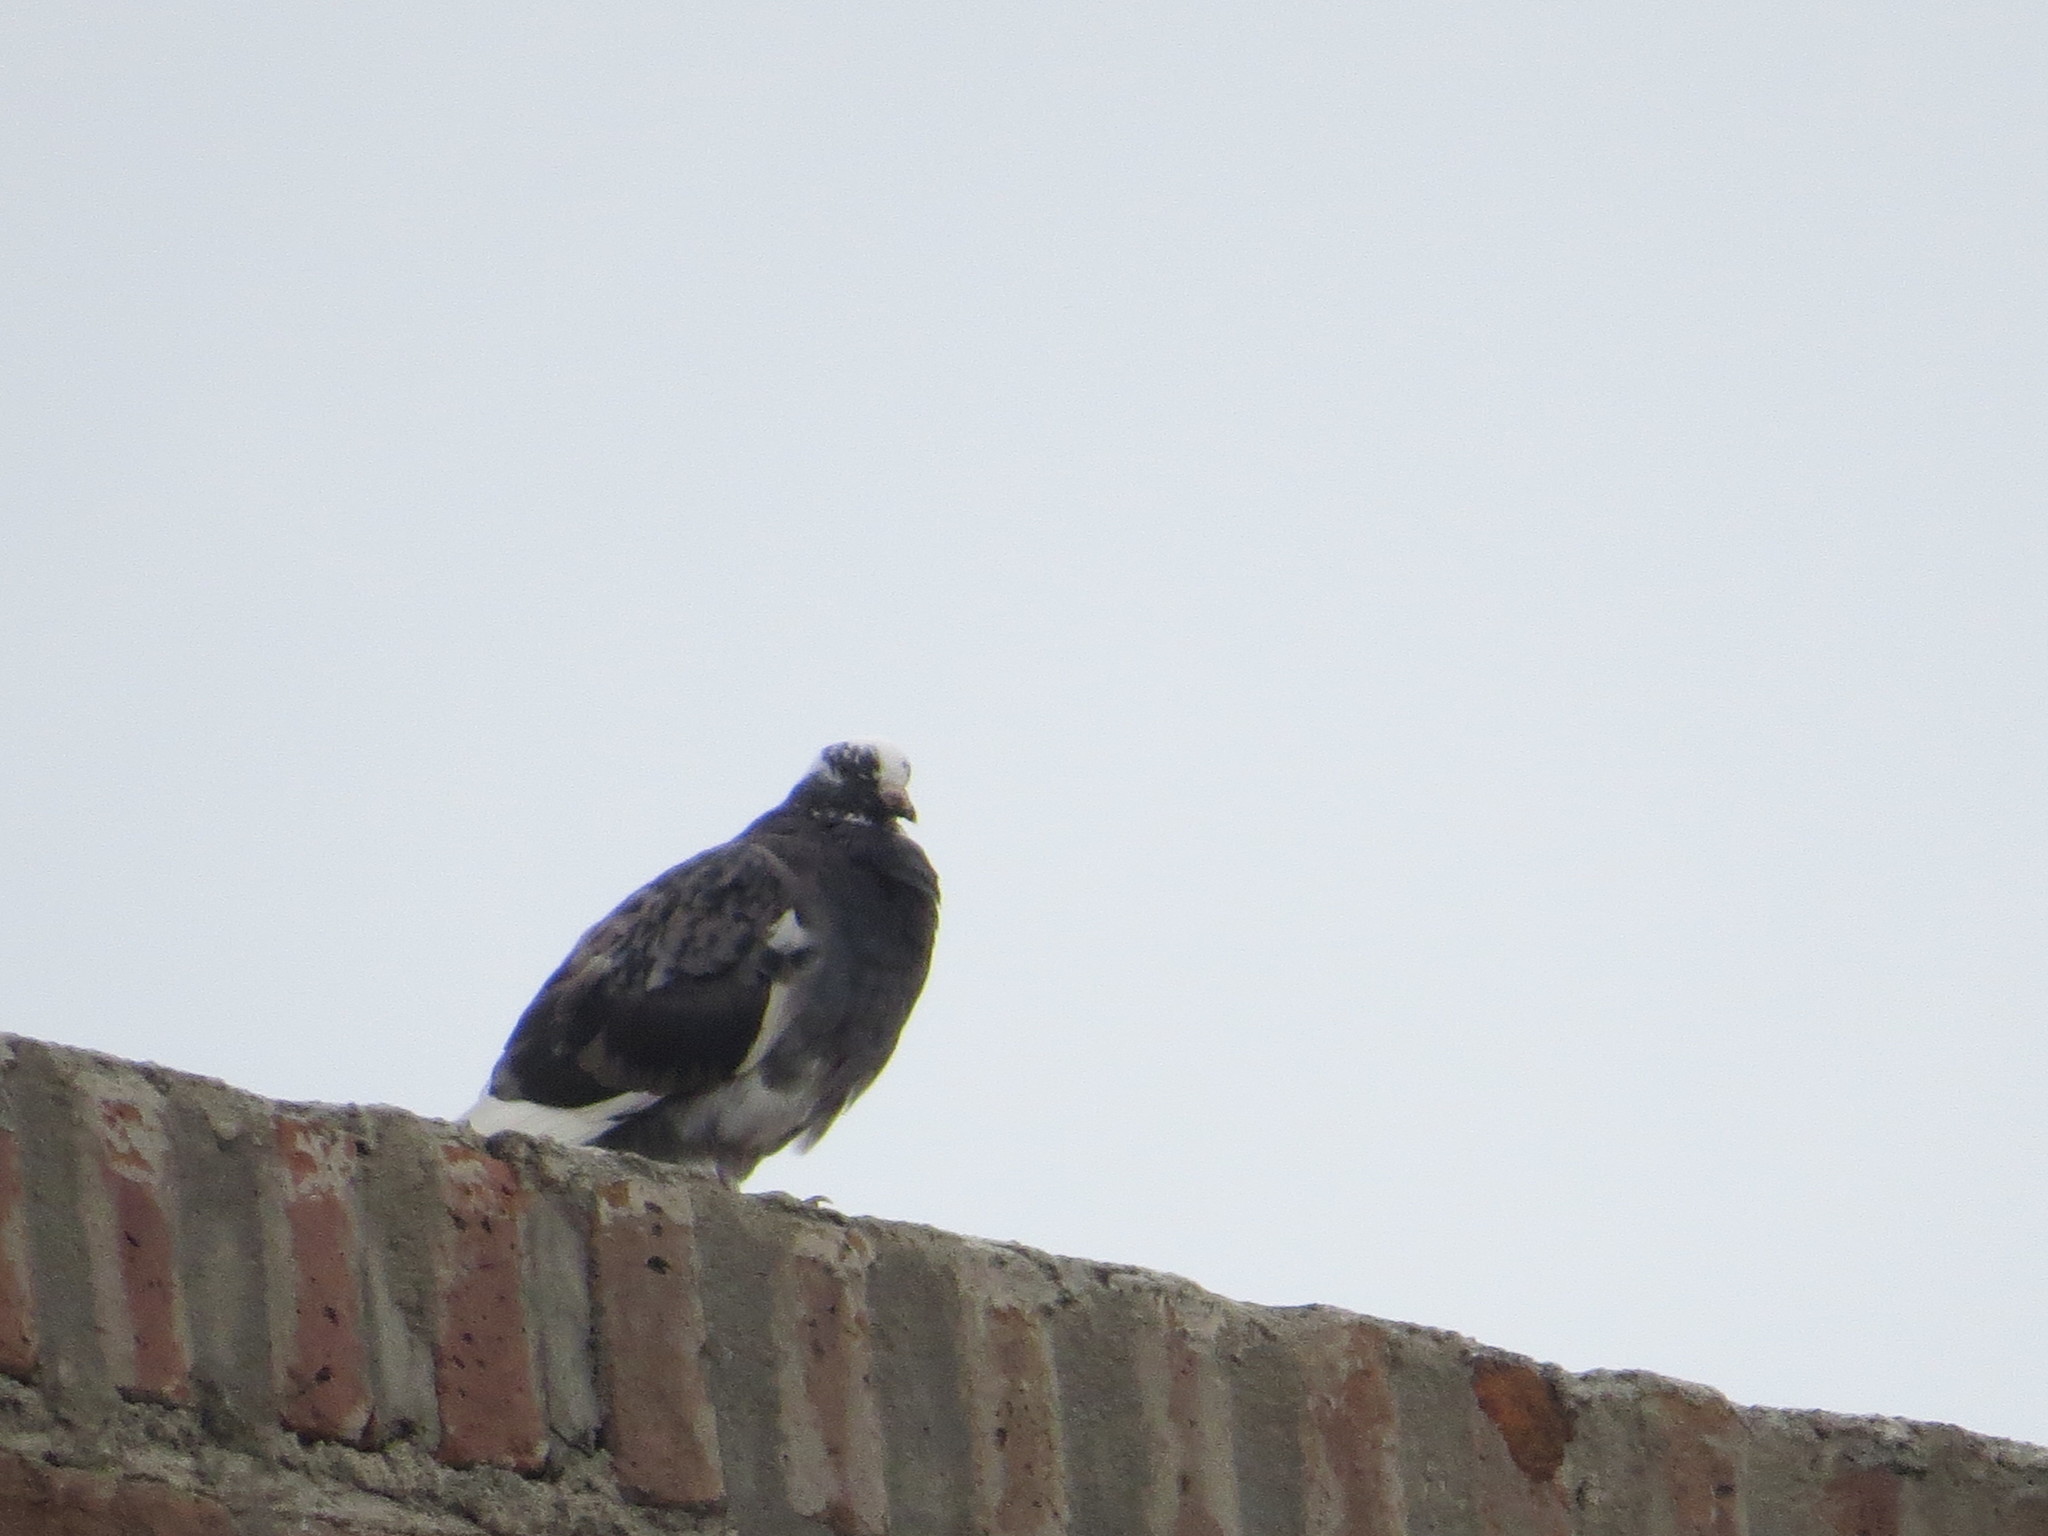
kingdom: Animalia
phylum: Chordata
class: Aves
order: Columbiformes
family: Columbidae
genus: Columba
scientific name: Columba livia
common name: Rock pigeon
